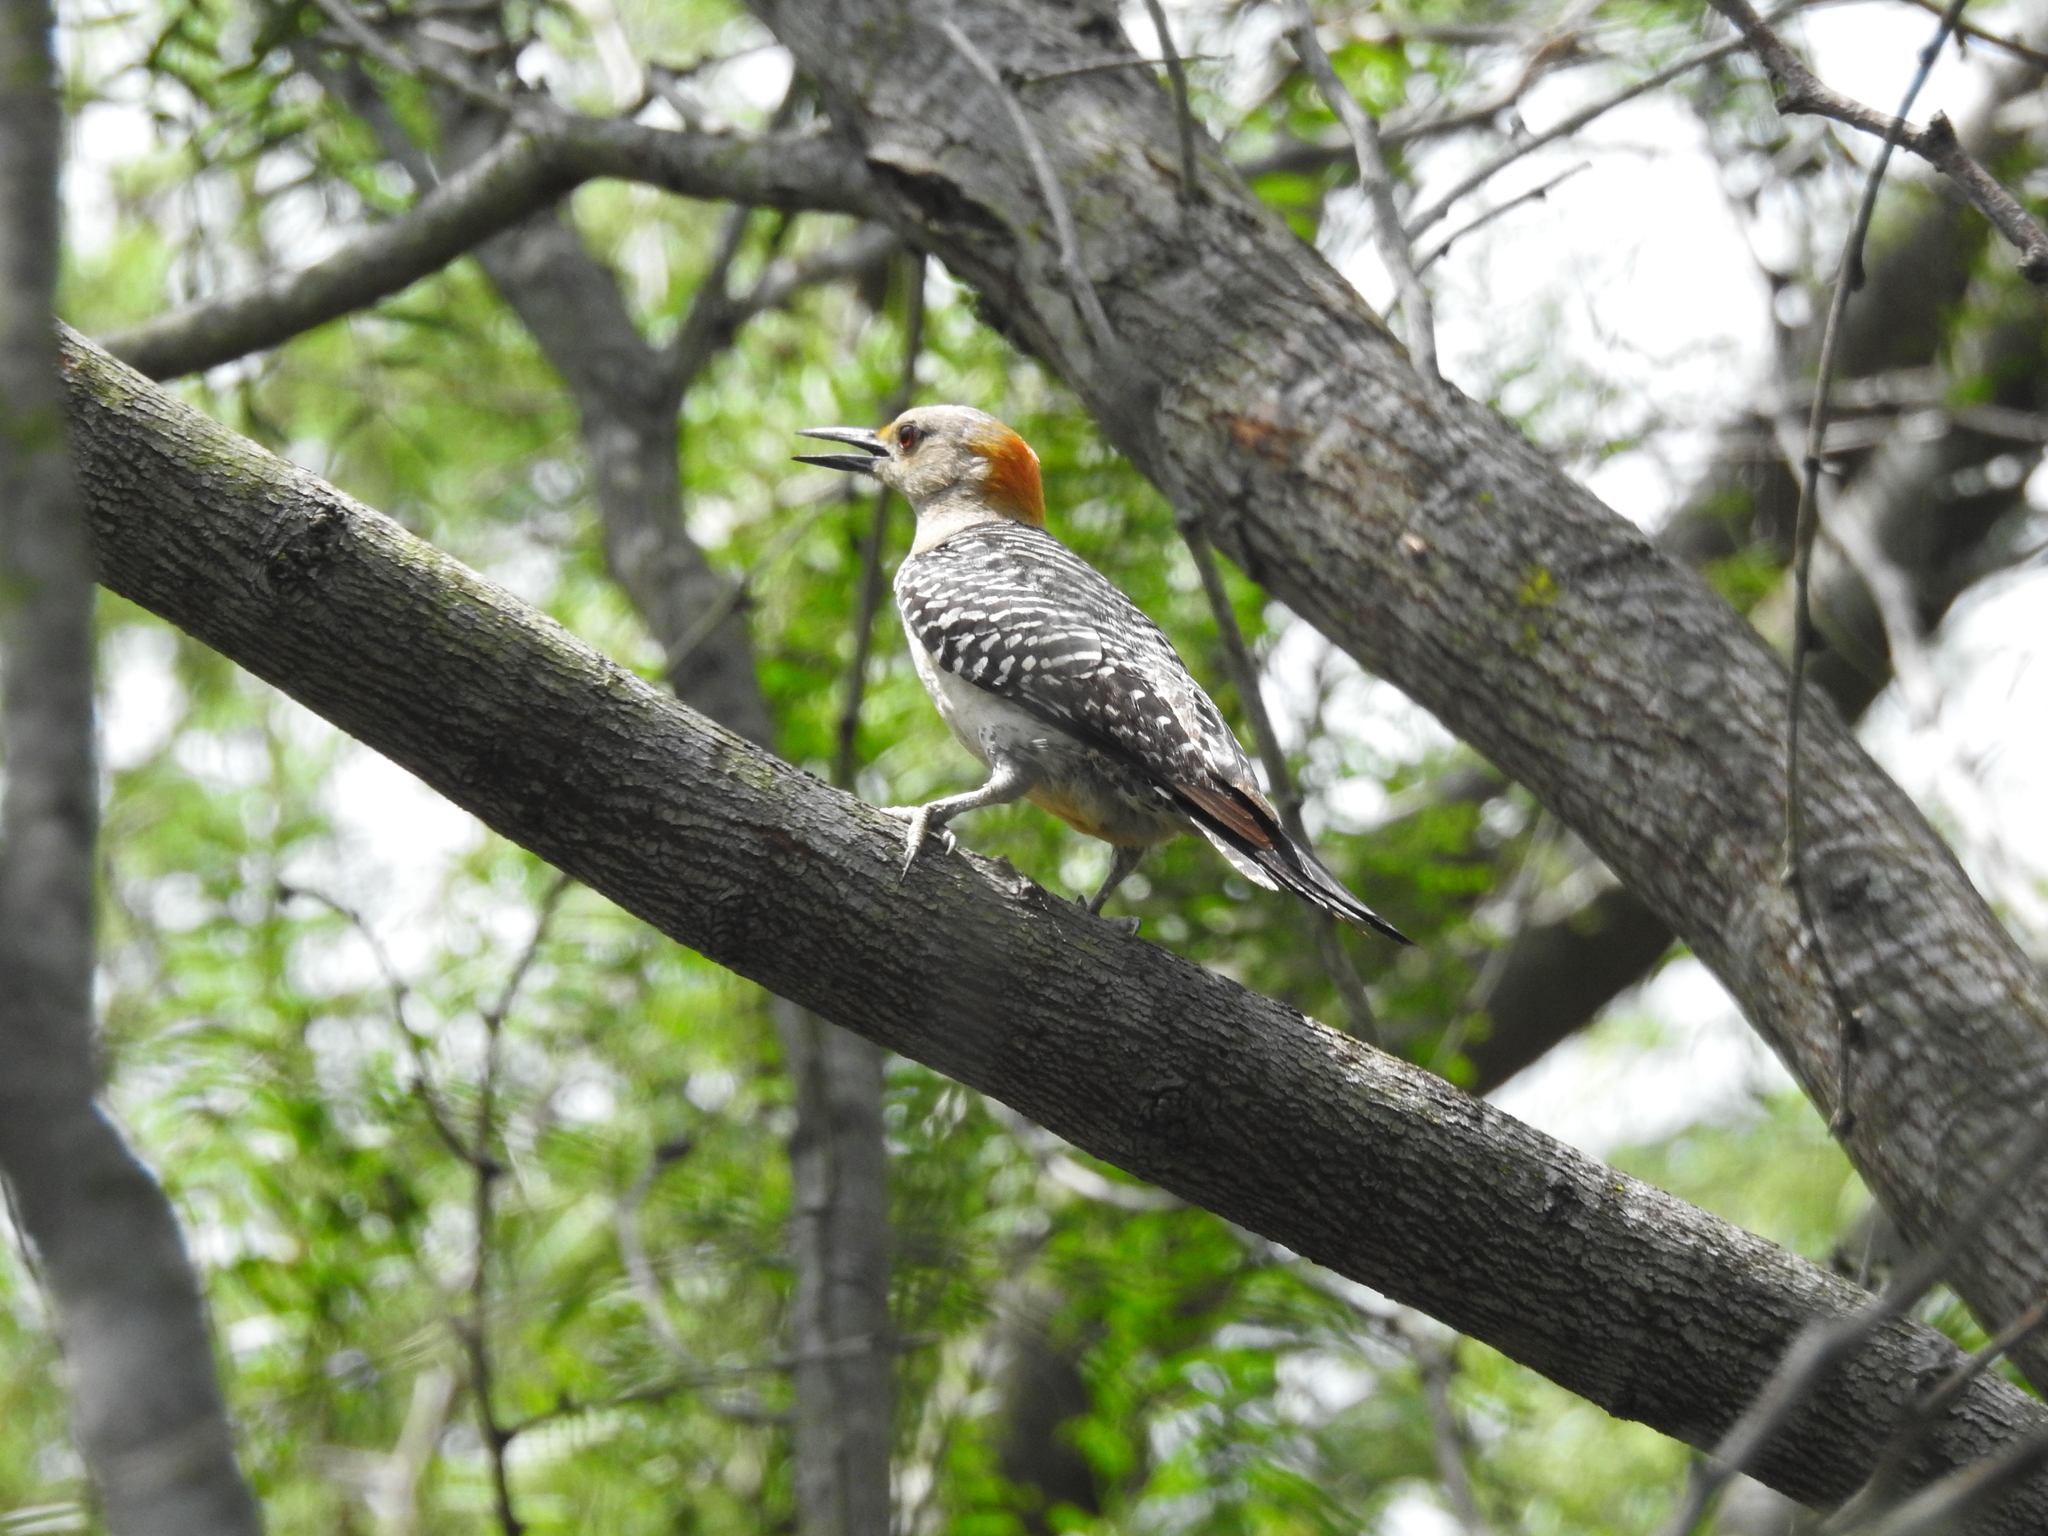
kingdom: Animalia
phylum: Chordata
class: Aves
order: Piciformes
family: Picidae
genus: Melanerpes
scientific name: Melanerpes aurifrons
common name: Golden-fronted woodpecker
